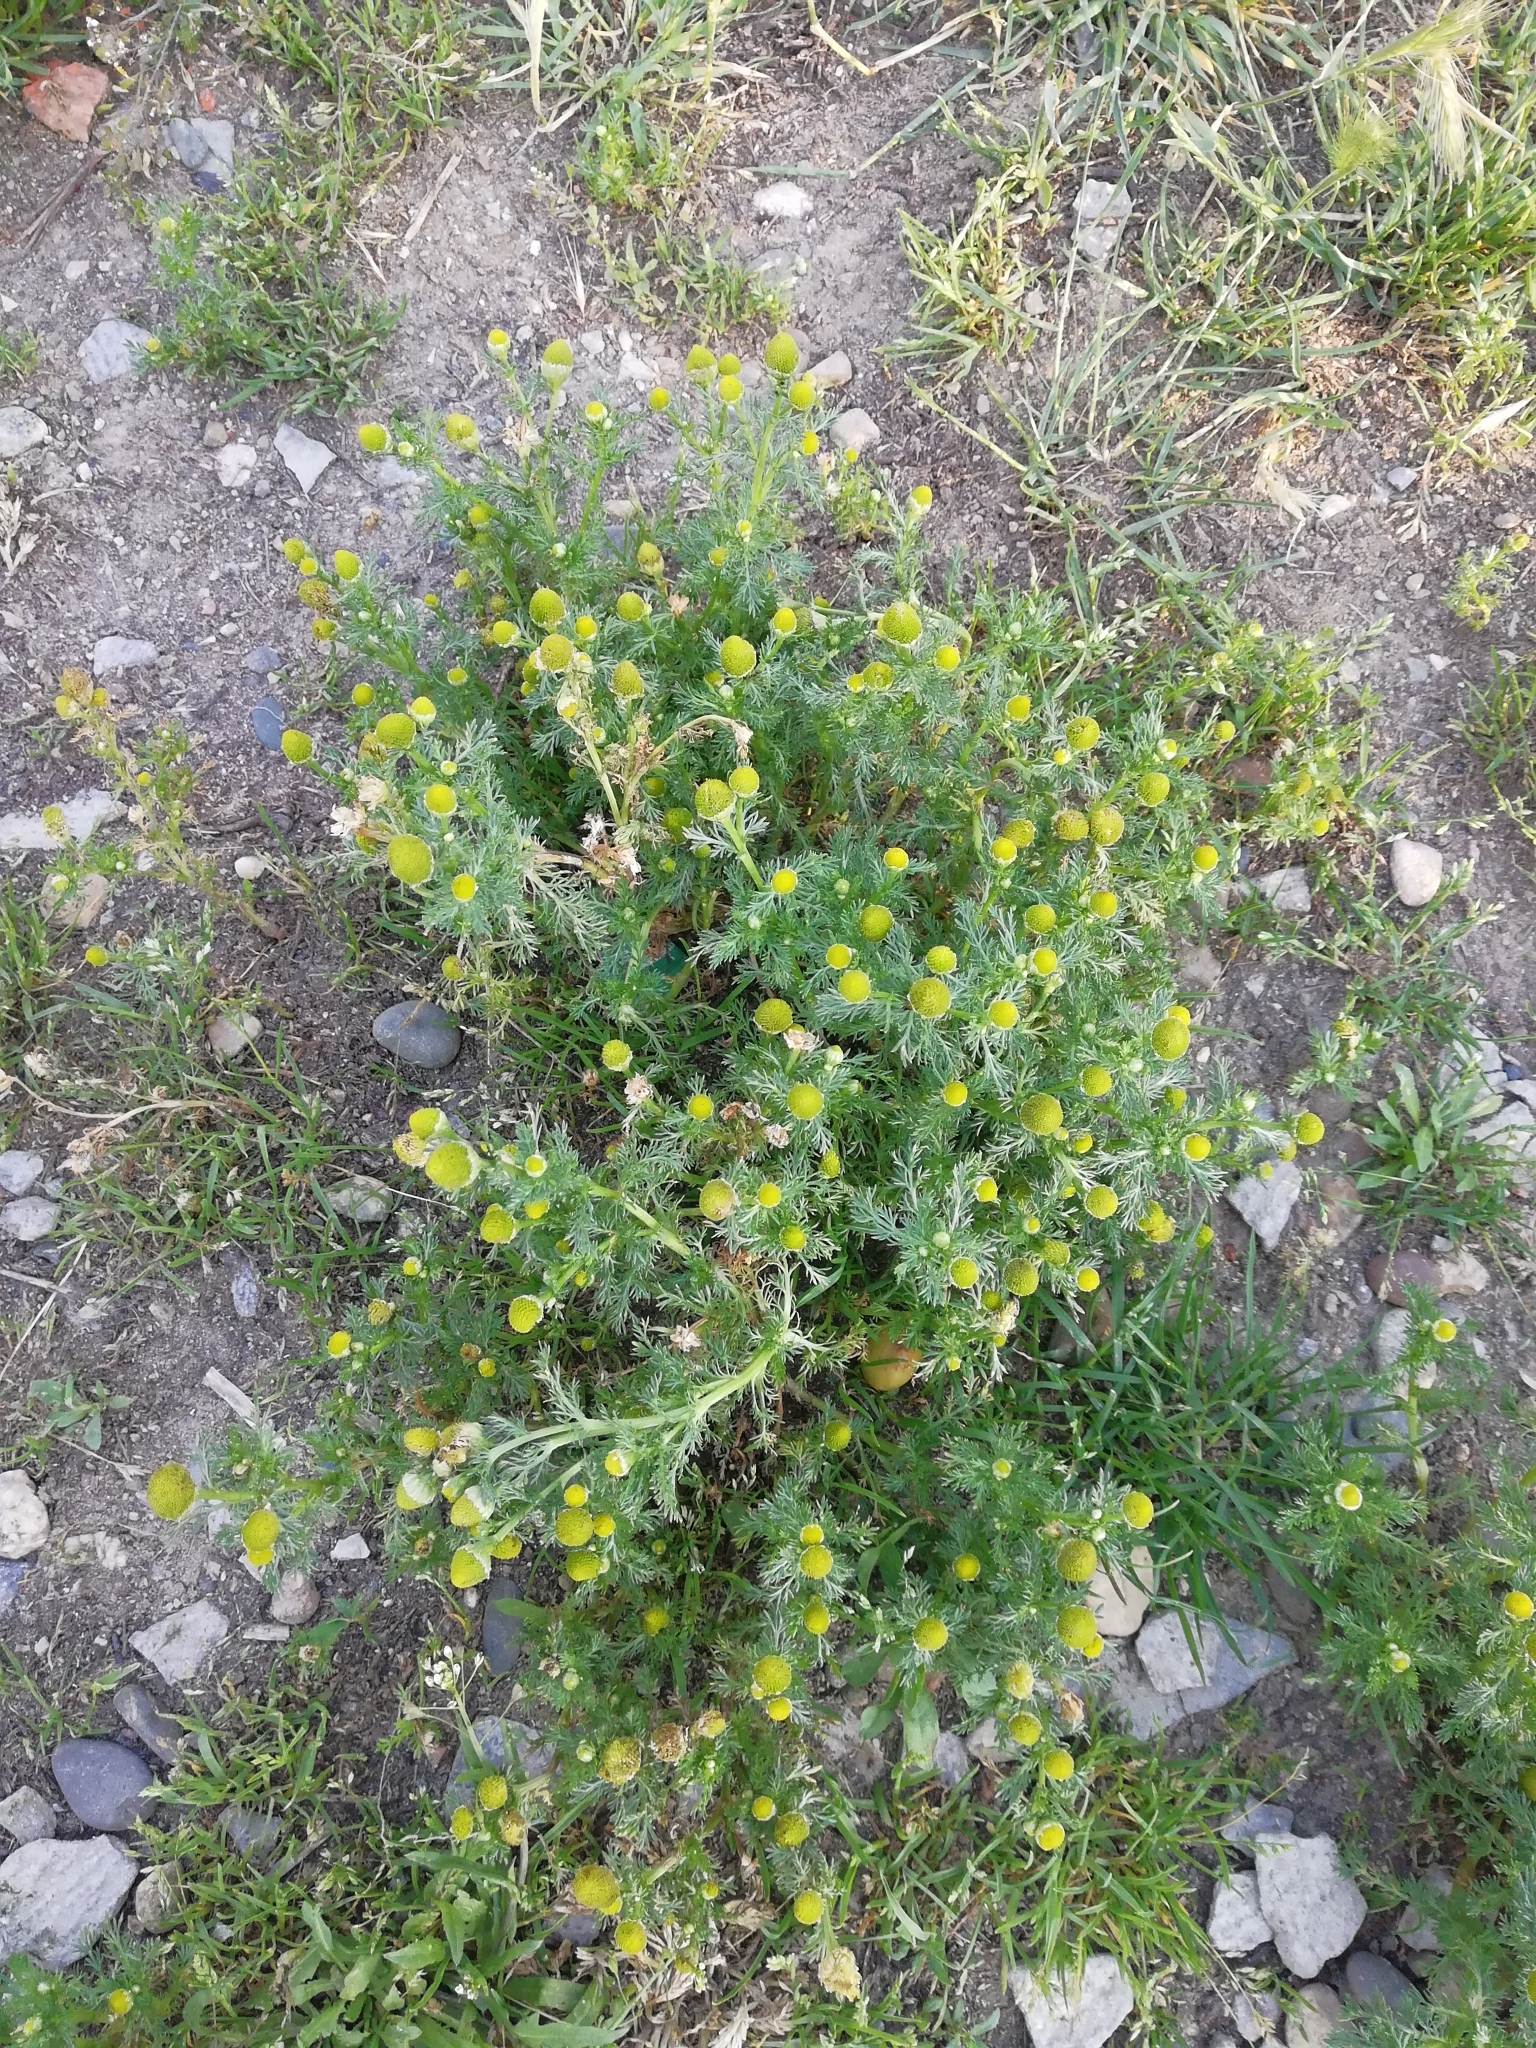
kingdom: Plantae
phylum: Tracheophyta
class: Magnoliopsida
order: Asterales
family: Asteraceae
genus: Matricaria
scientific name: Matricaria discoidea
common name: Disc mayweed
